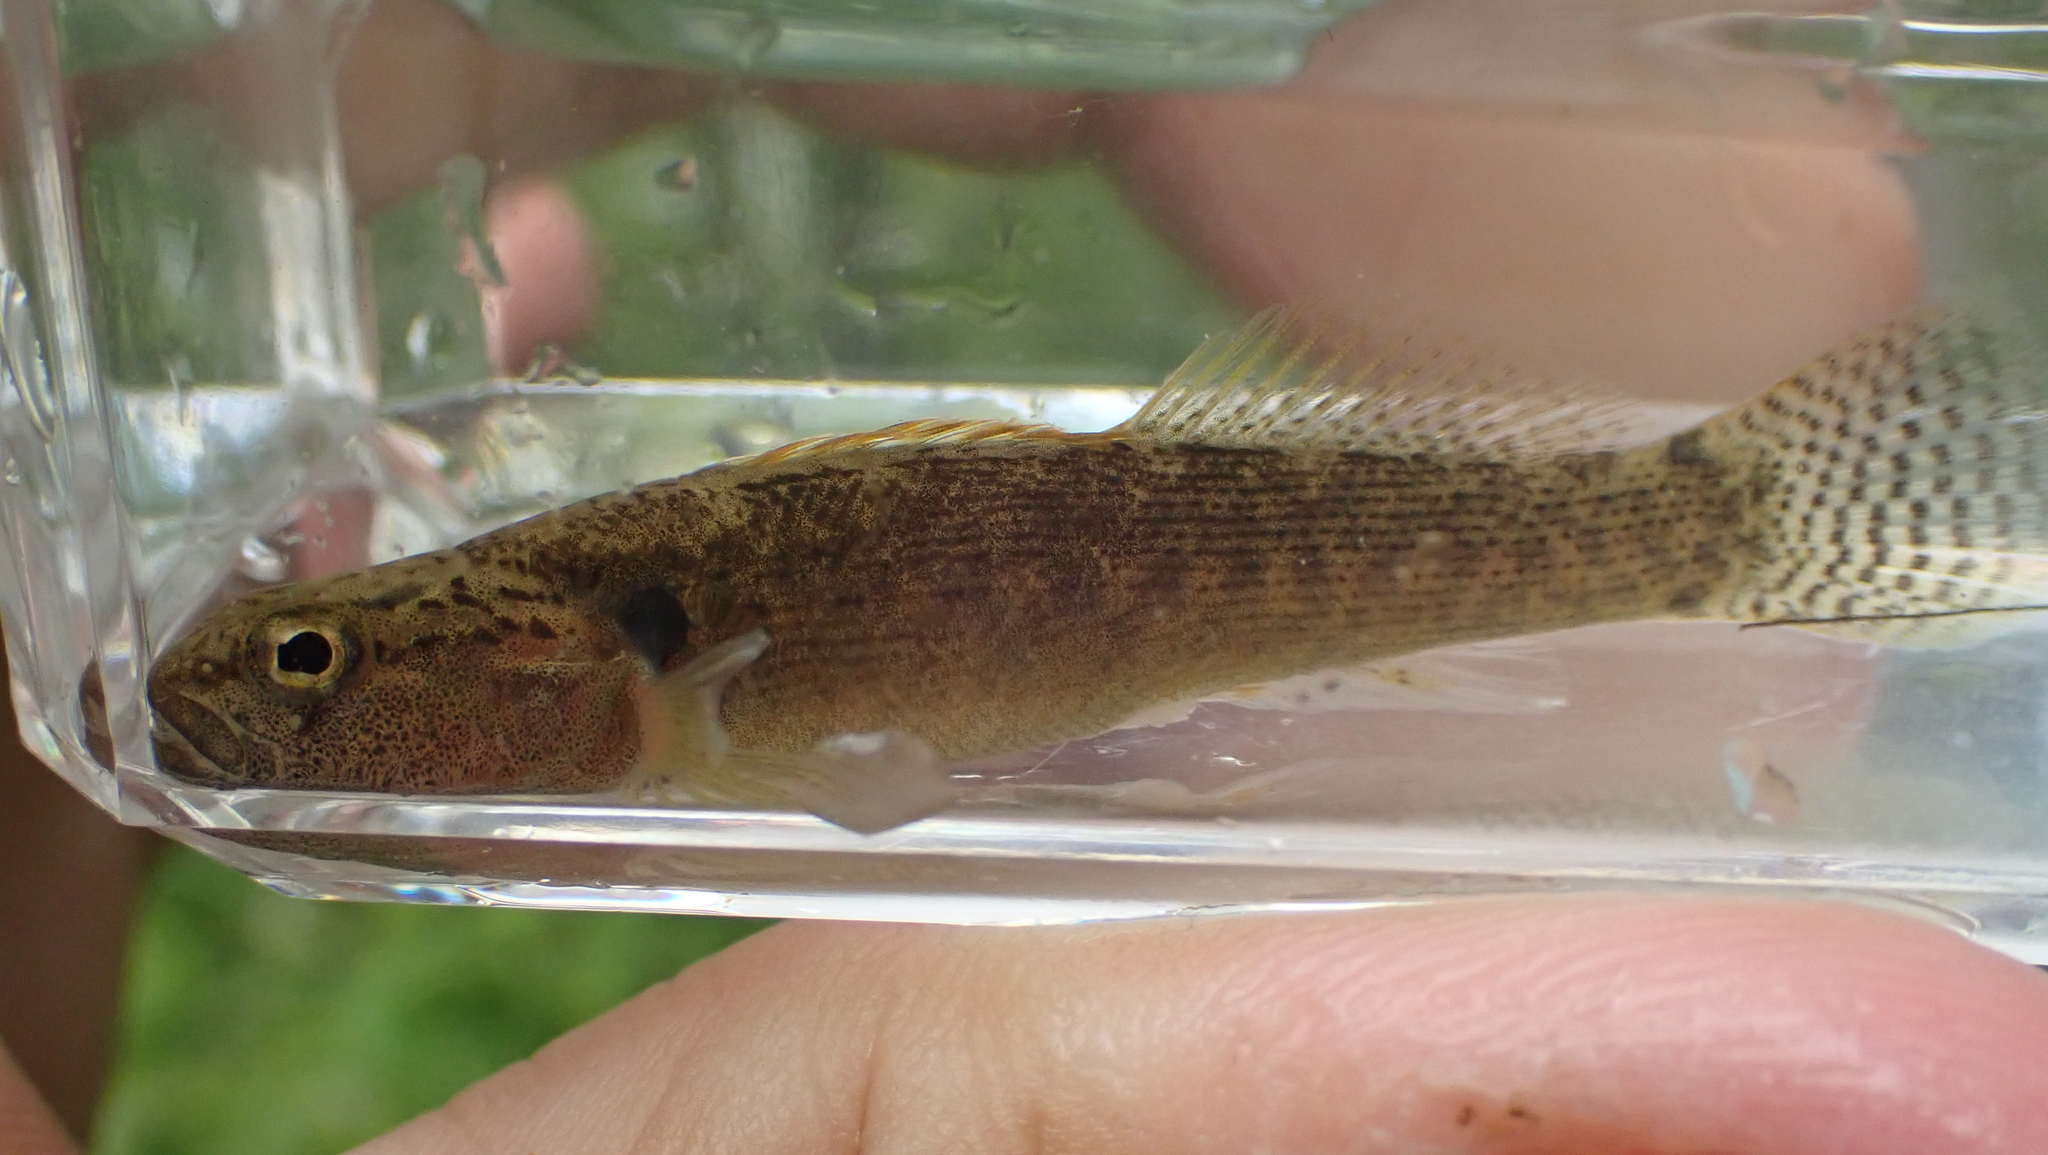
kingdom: Animalia
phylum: Chordata
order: Perciformes
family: Percidae
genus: Etheostoma
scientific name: Etheostoma flabellare
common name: Fantail darter
